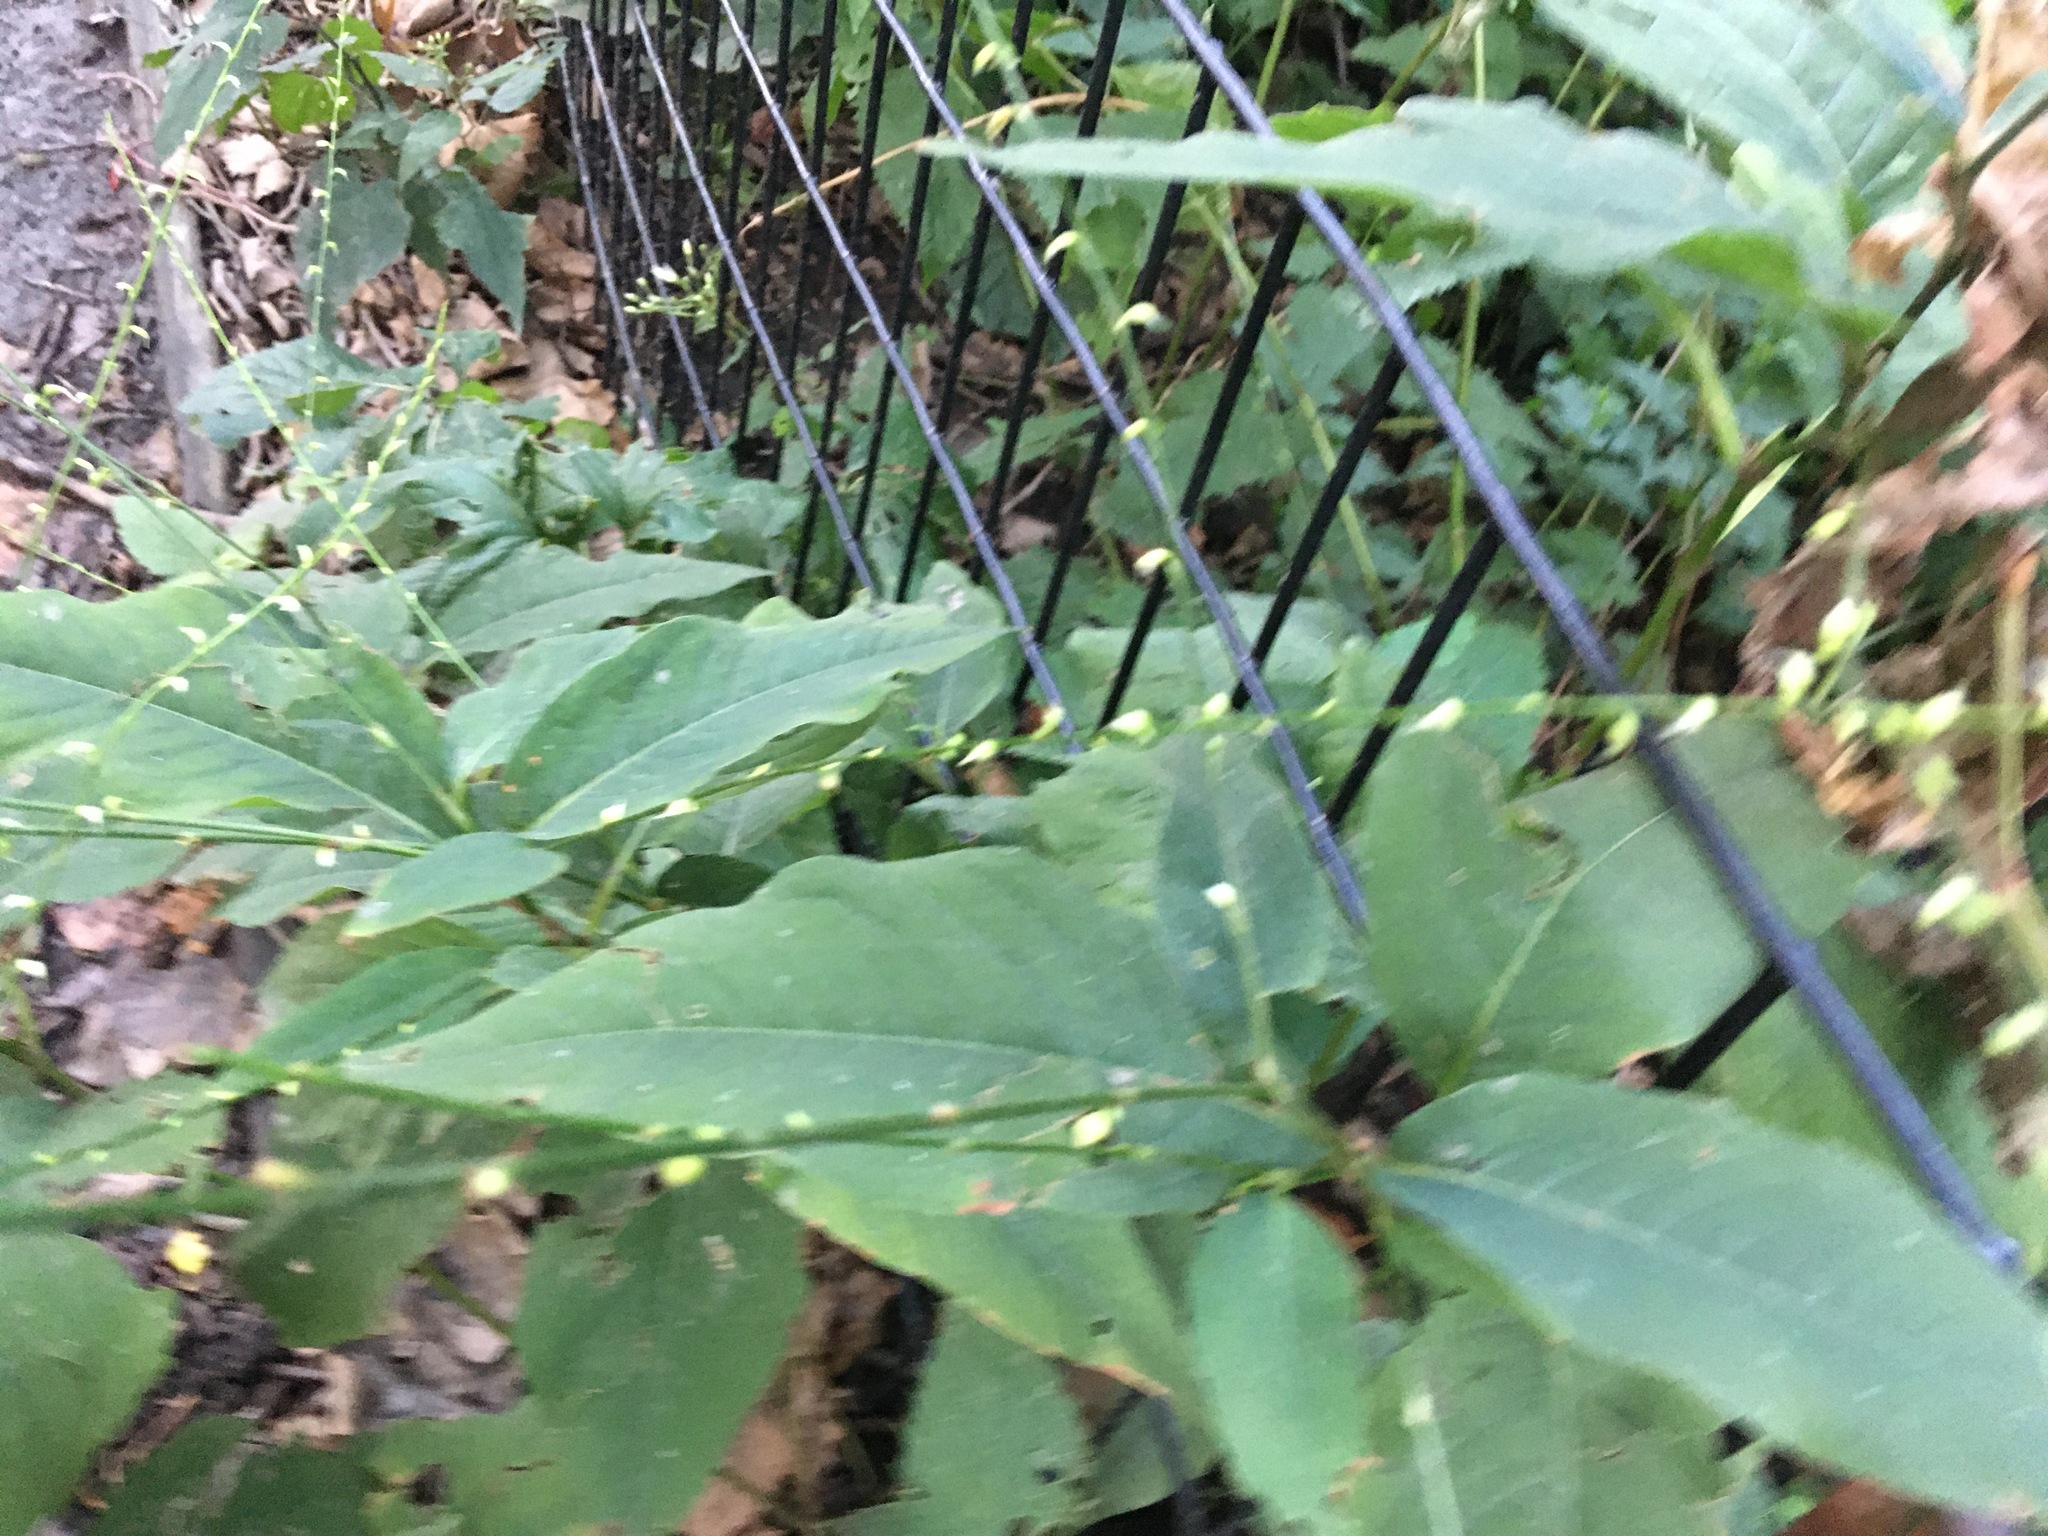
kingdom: Plantae
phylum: Tracheophyta
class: Magnoliopsida
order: Caryophyllales
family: Polygonaceae
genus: Persicaria
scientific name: Persicaria virginiana
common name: Jumpseed
